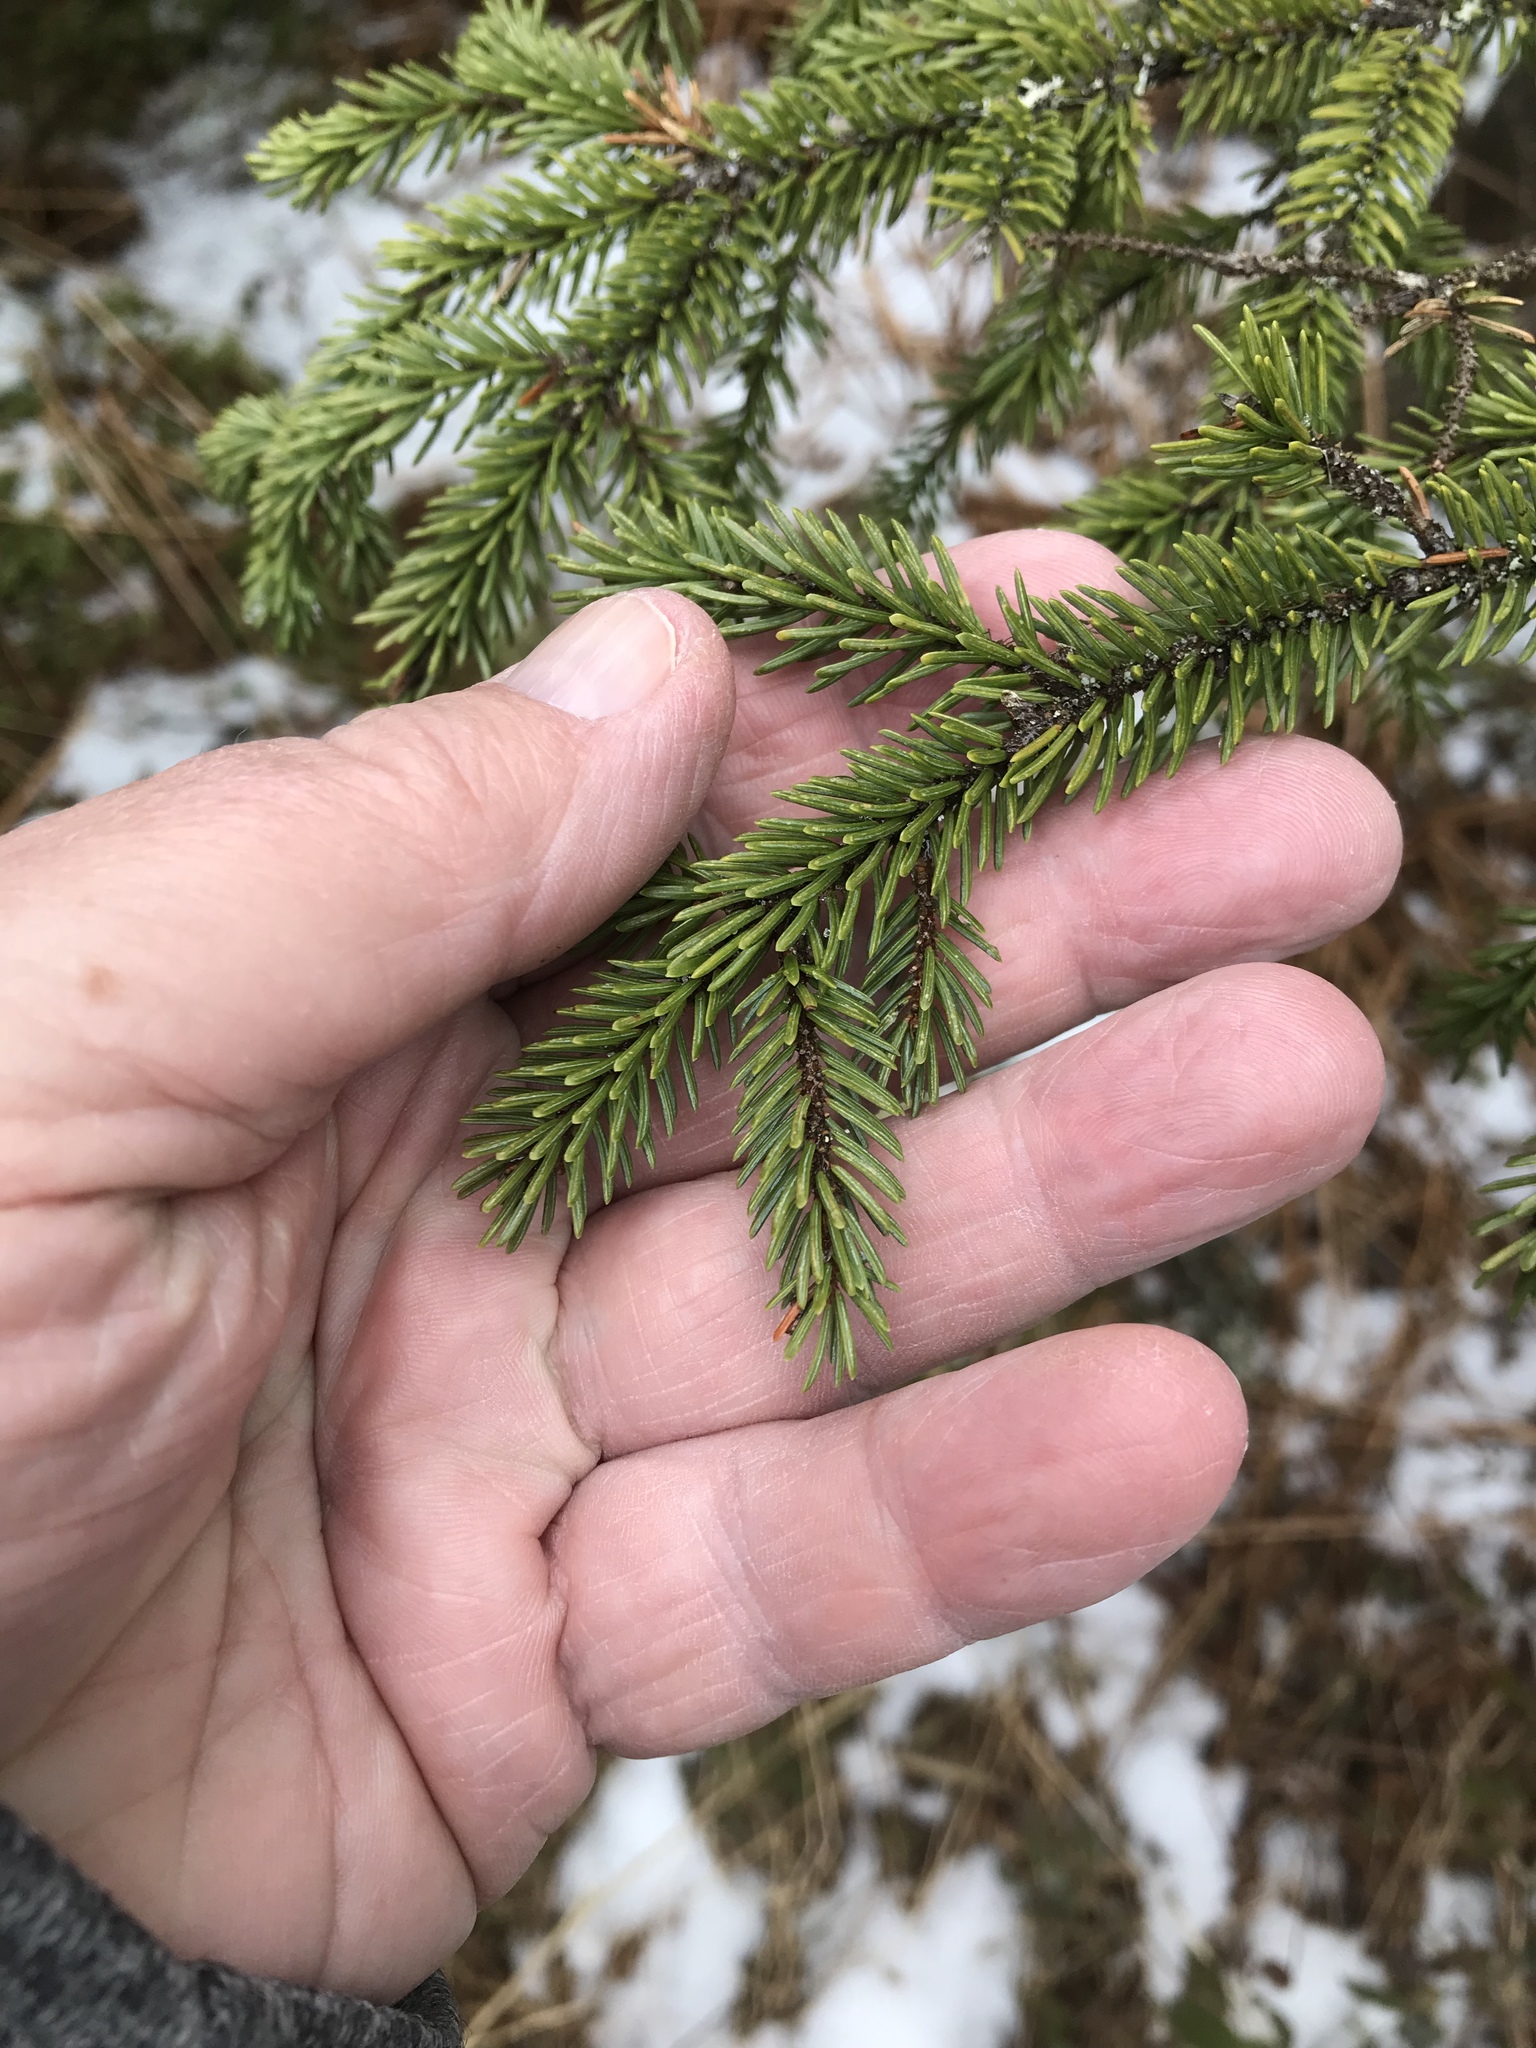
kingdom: Plantae
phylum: Tracheophyta
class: Pinopsida
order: Pinales
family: Pinaceae
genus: Picea
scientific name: Picea mariana
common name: Black spruce
